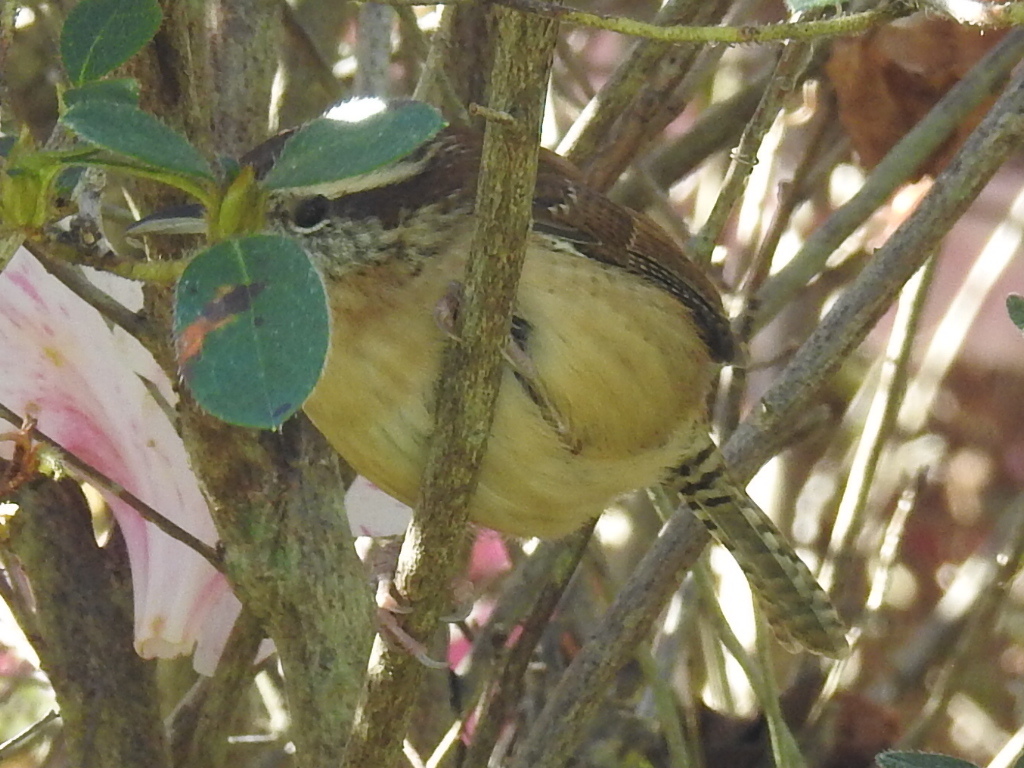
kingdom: Animalia
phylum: Chordata
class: Aves
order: Passeriformes
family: Troglodytidae
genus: Thryothorus
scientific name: Thryothorus ludovicianus
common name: Carolina wren
